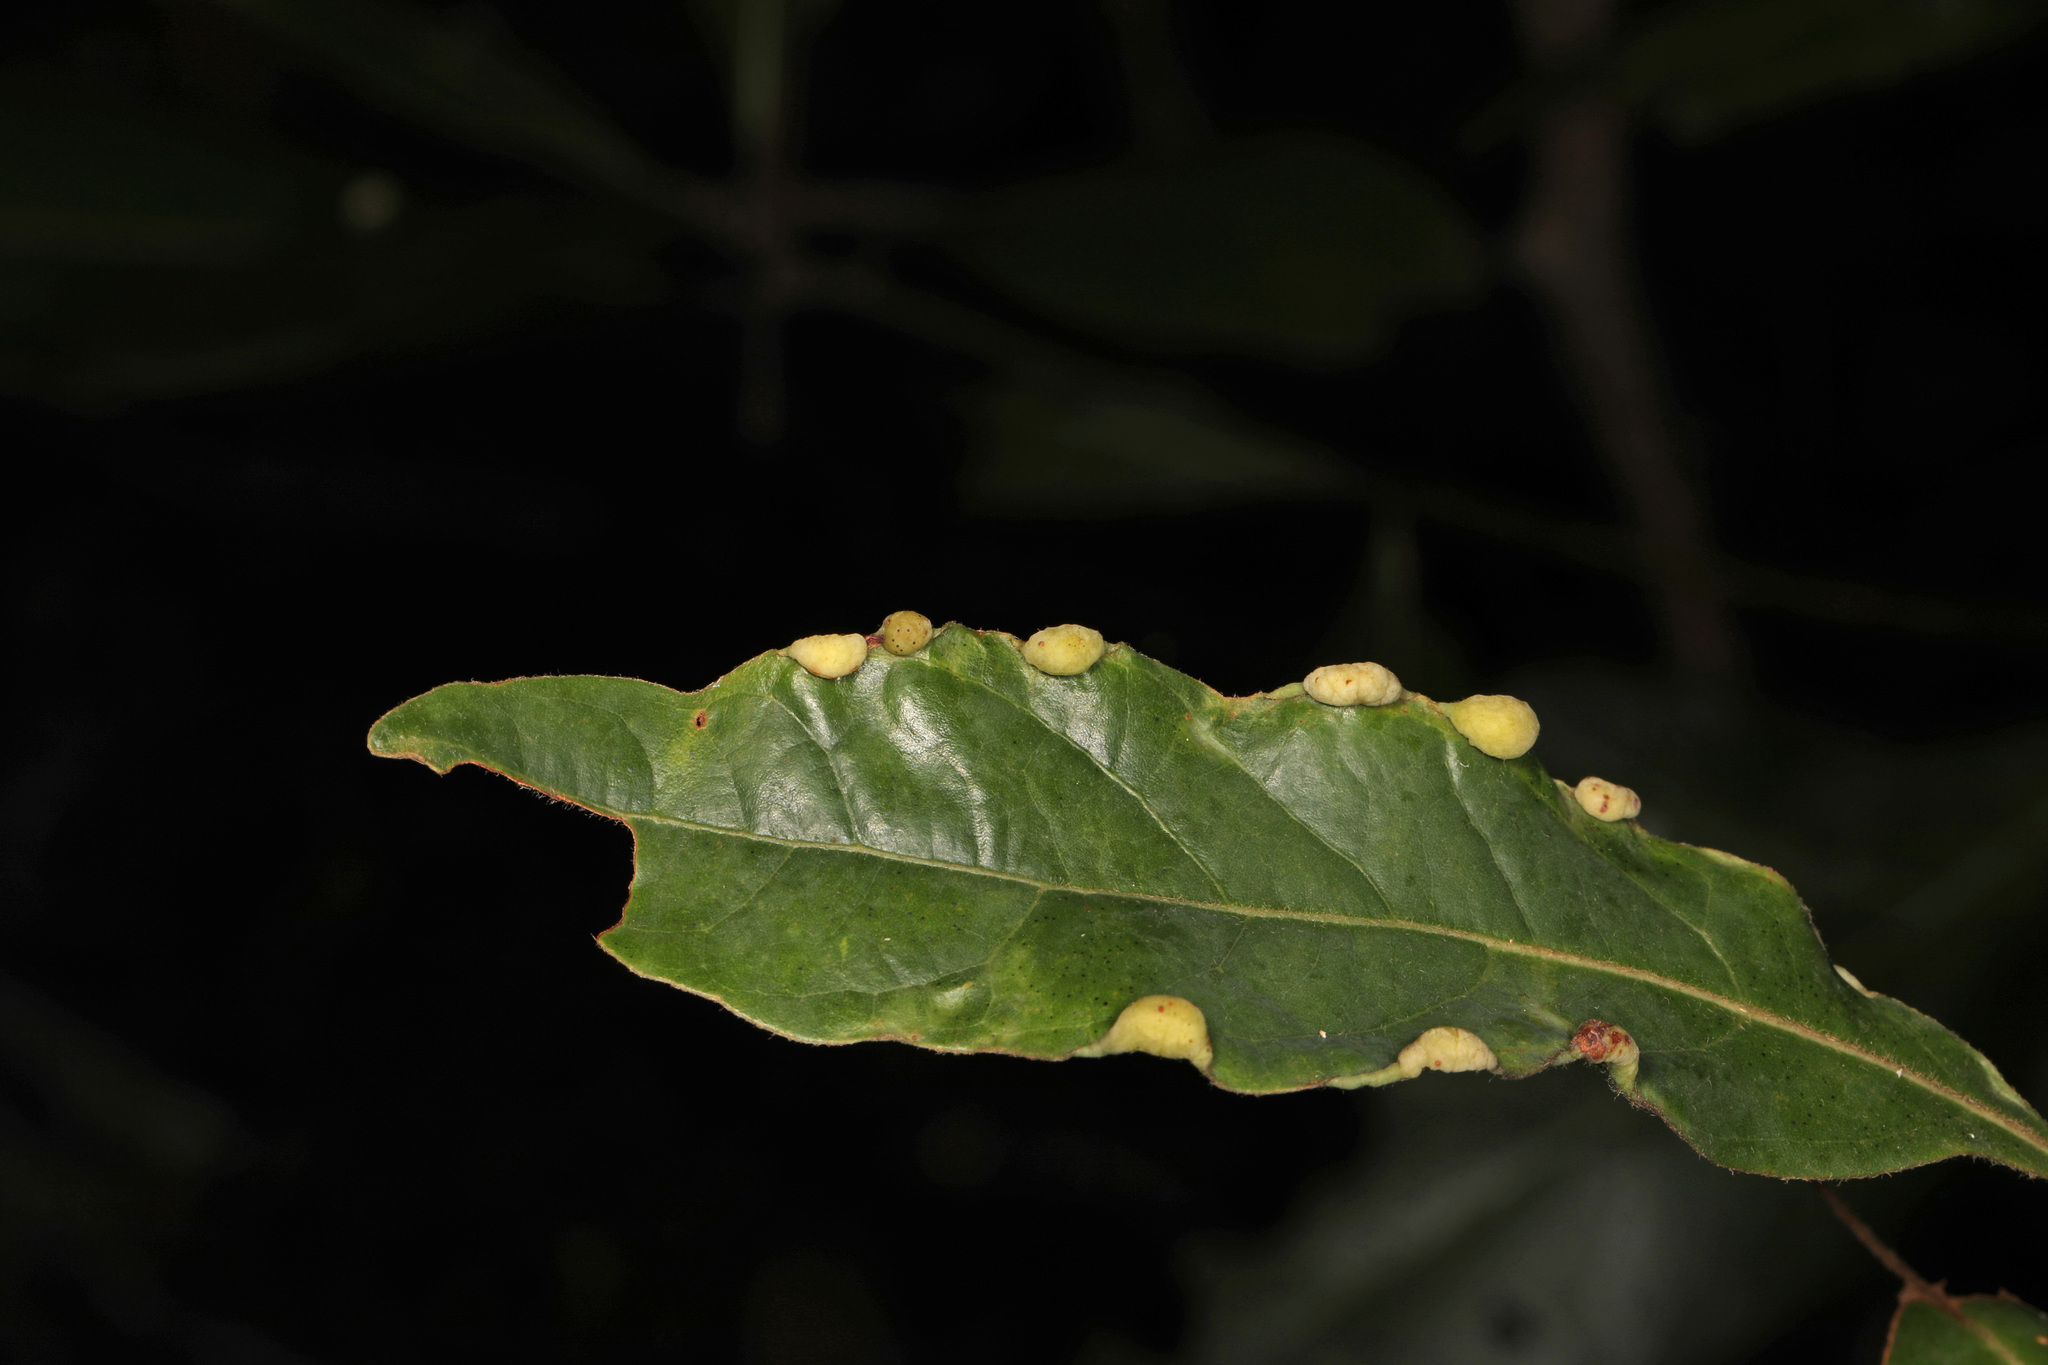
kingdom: Animalia
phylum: Arthropoda
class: Insecta
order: Hemiptera
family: Triozidae
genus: Trioza
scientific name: Trioza magnoliae
